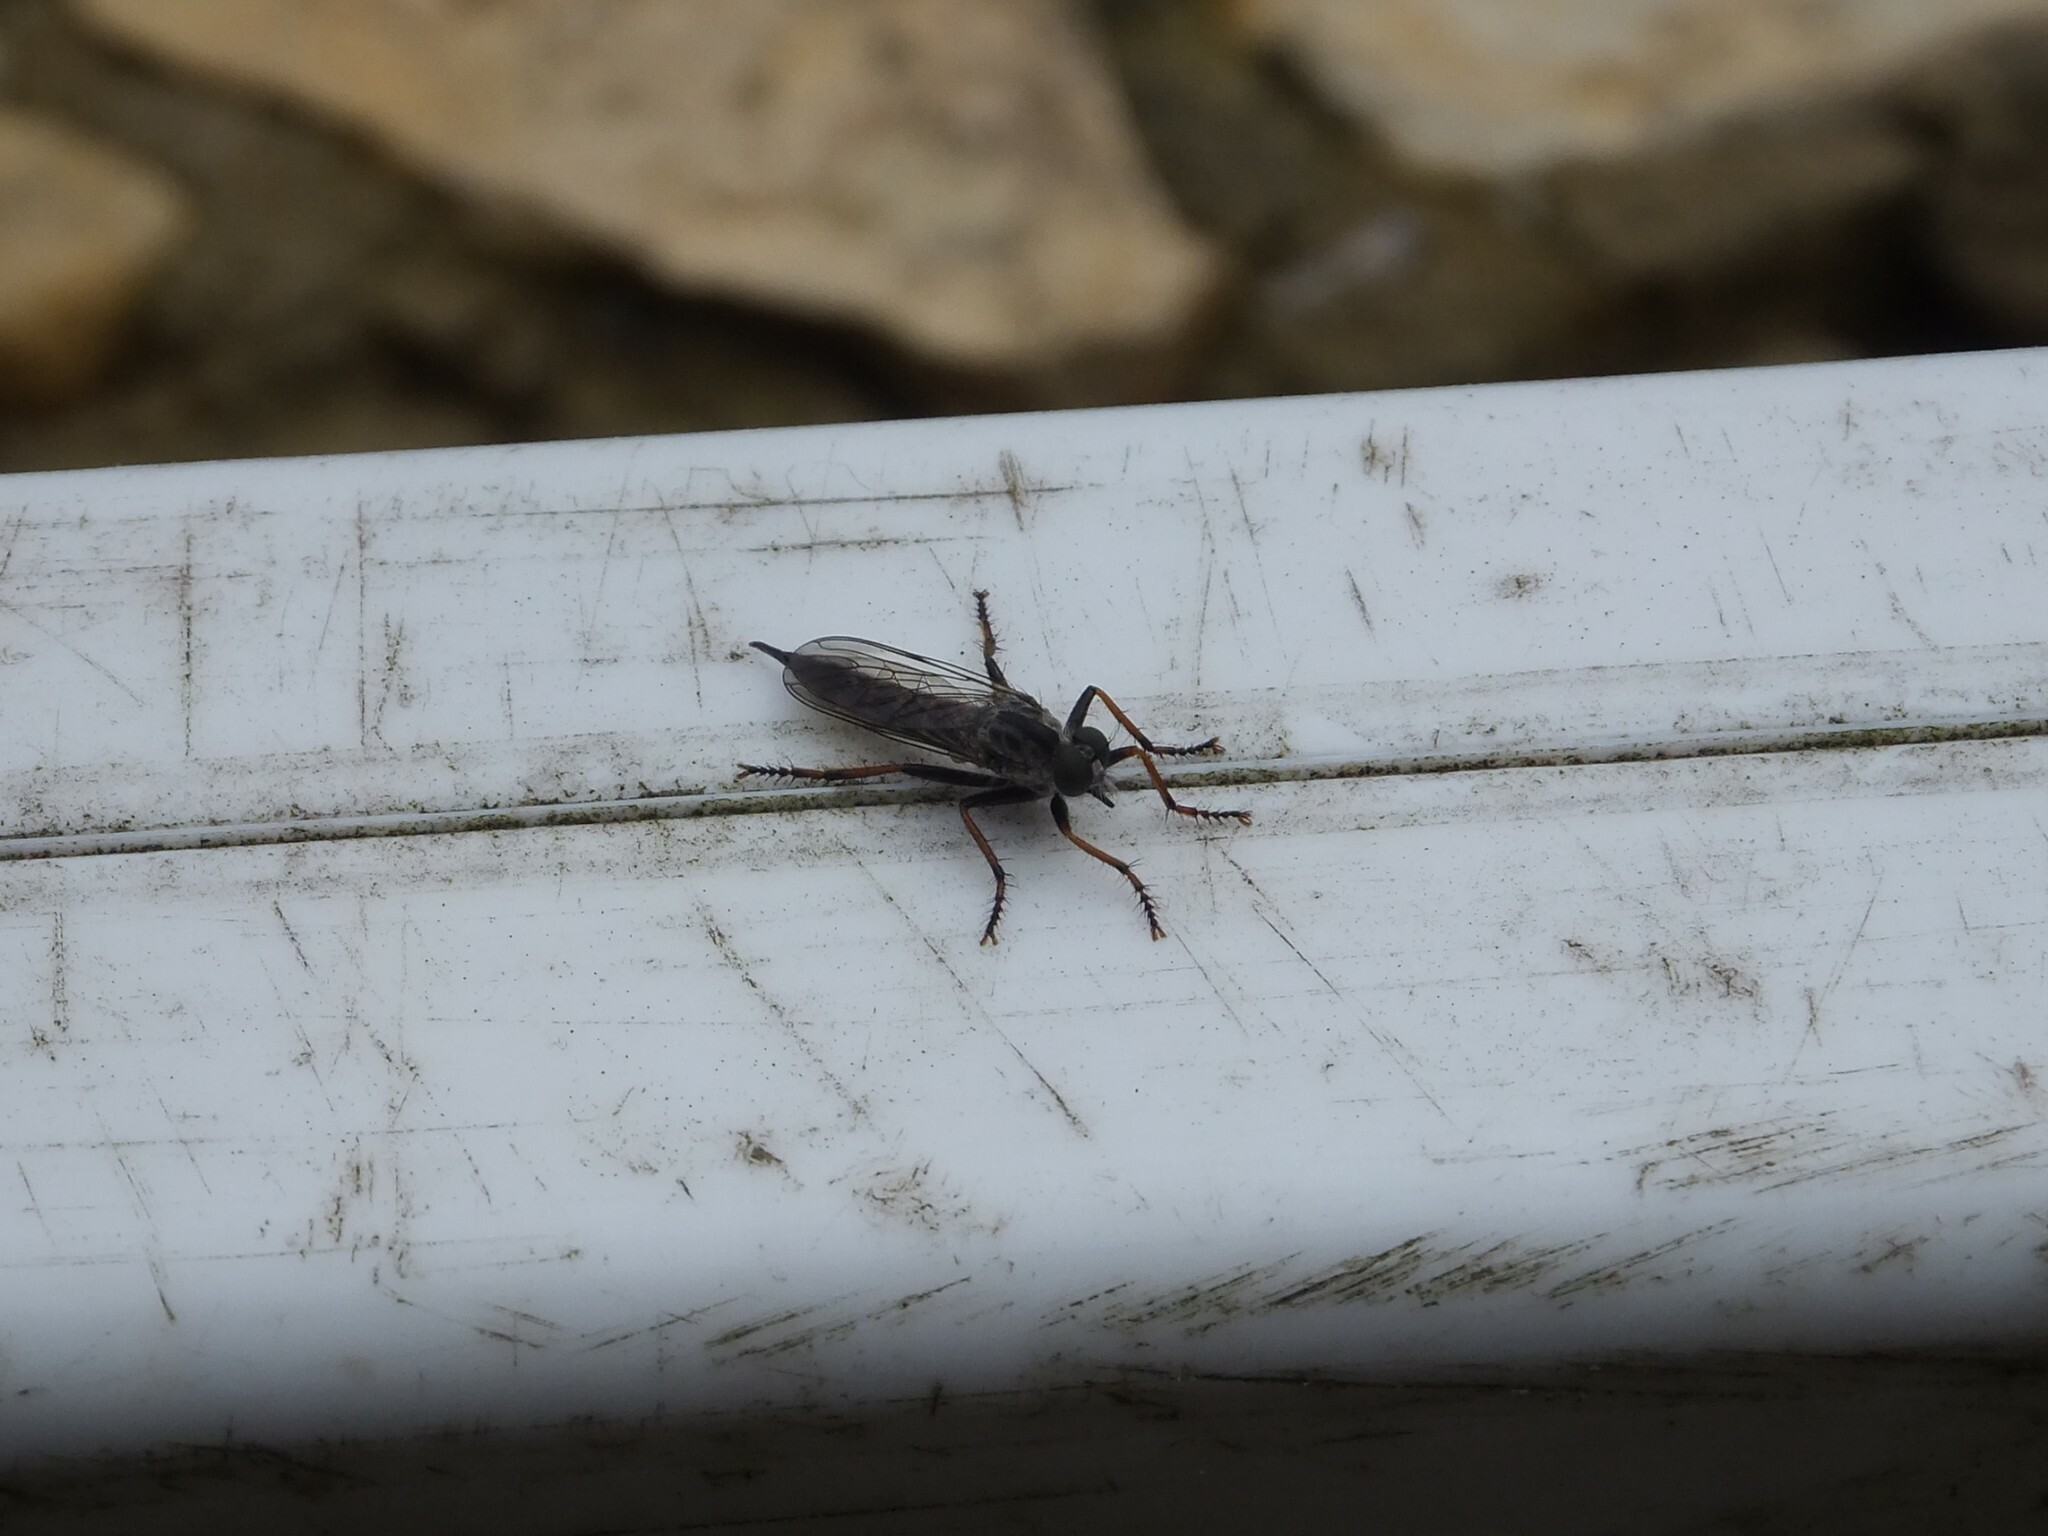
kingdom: Animalia
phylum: Arthropoda
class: Insecta
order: Diptera
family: Asilidae
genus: Paritamus
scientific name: Paritamus geniculatus
